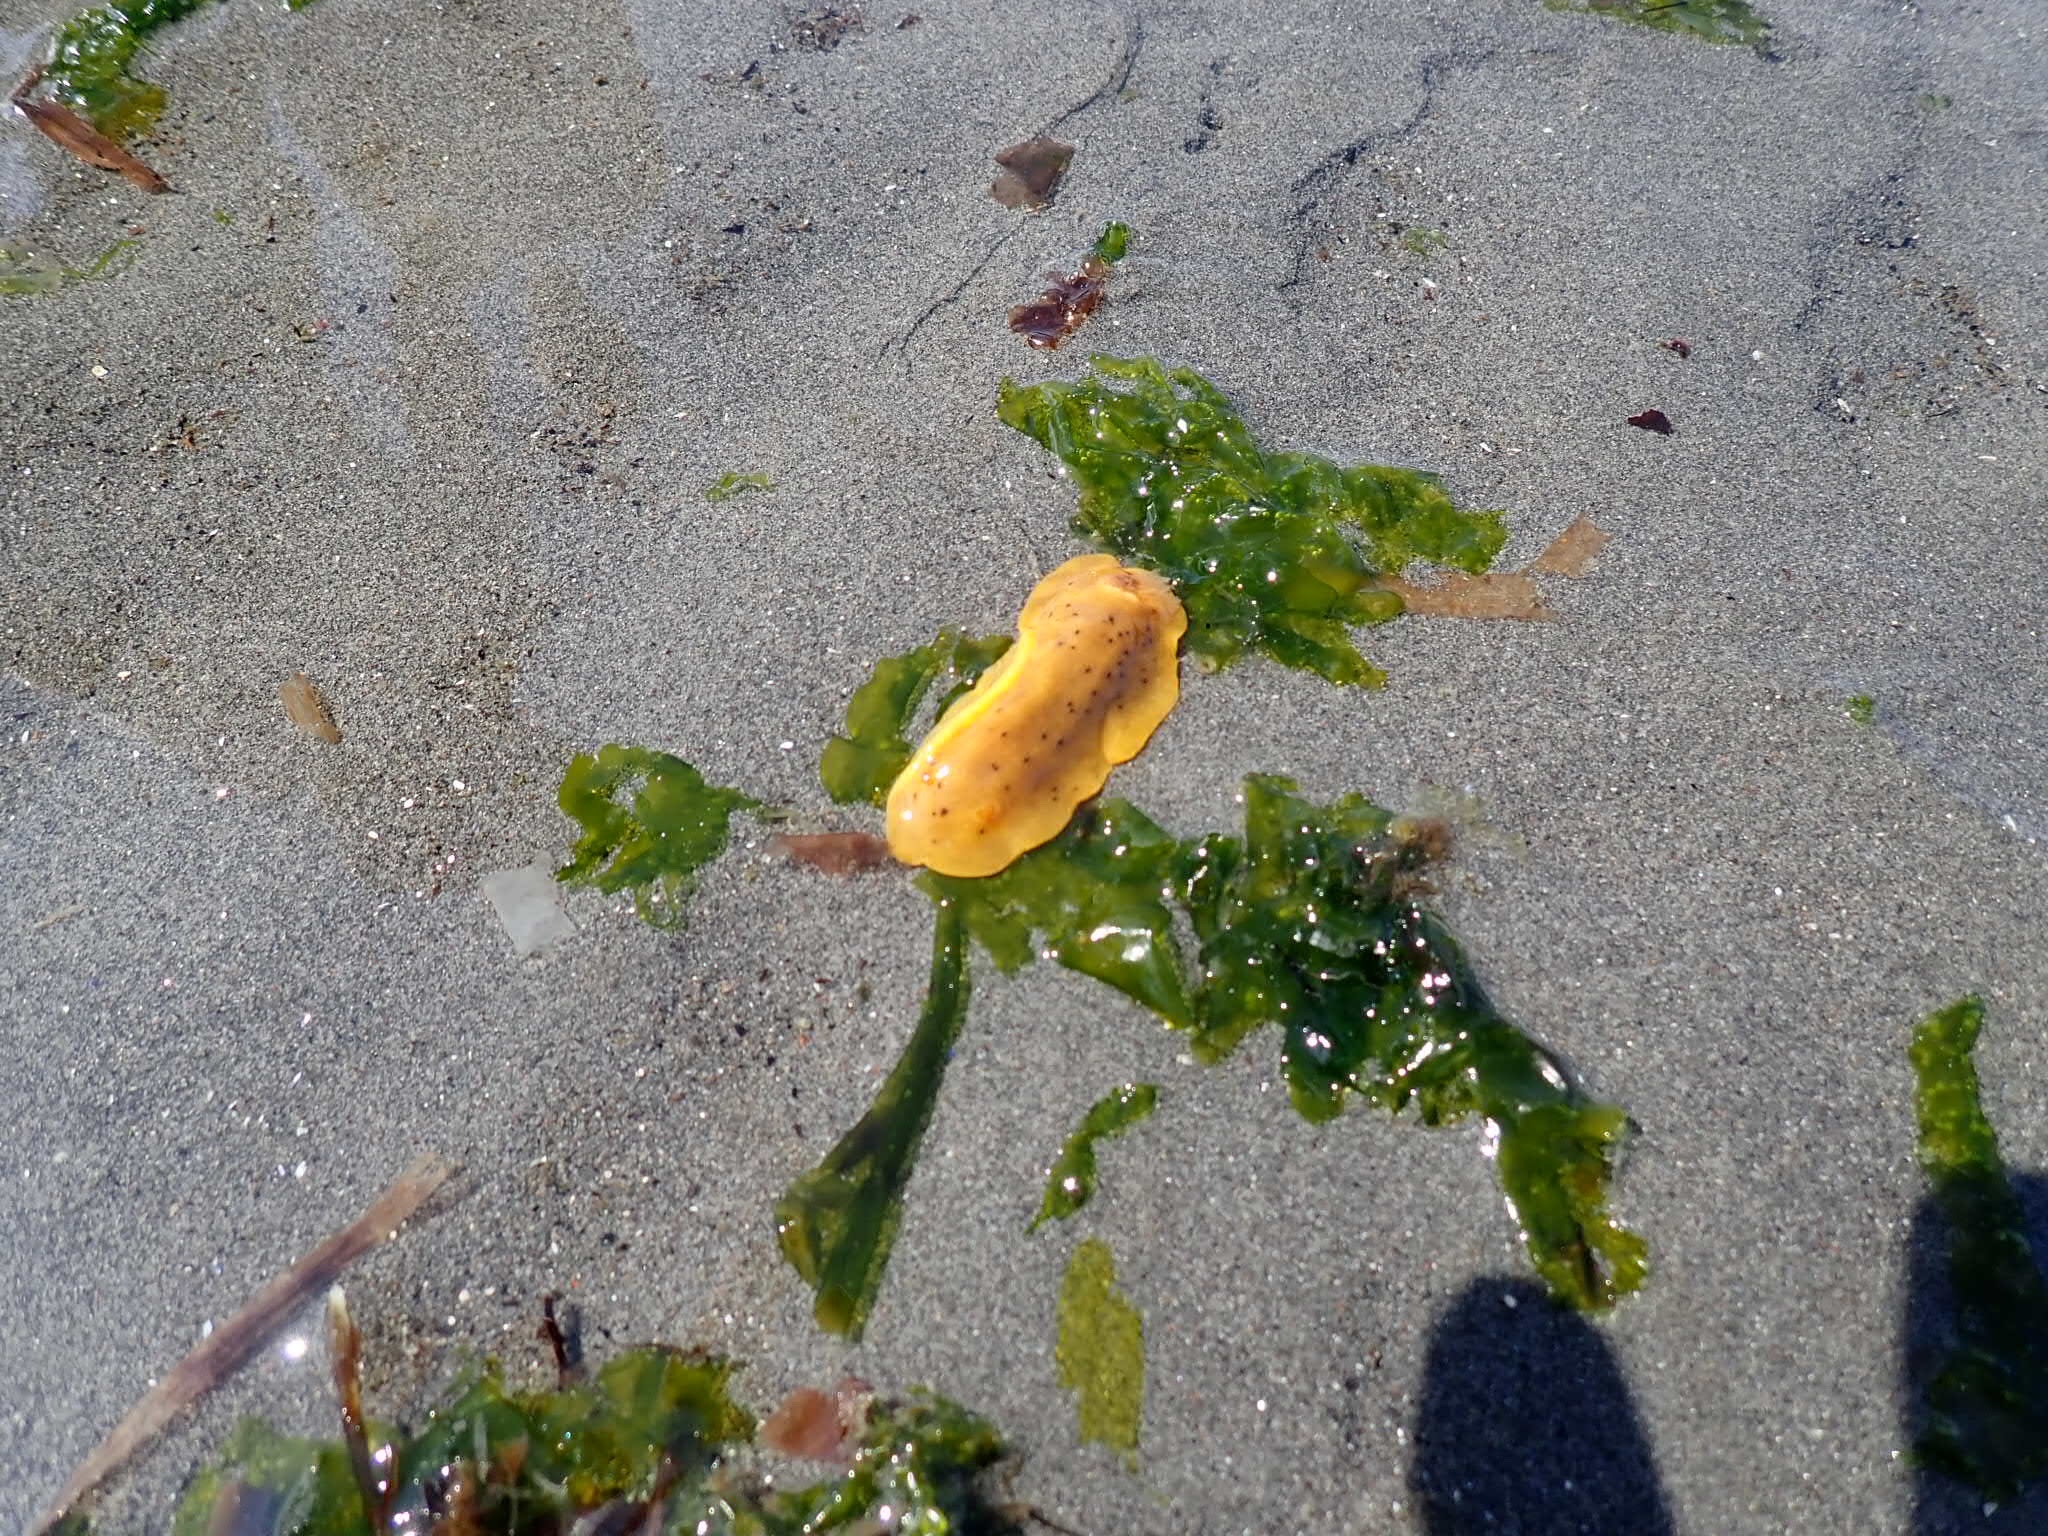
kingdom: Animalia
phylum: Mollusca
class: Gastropoda
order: Nudibranchia
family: Discodorididae
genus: Geitodoris
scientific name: Geitodoris heathi
